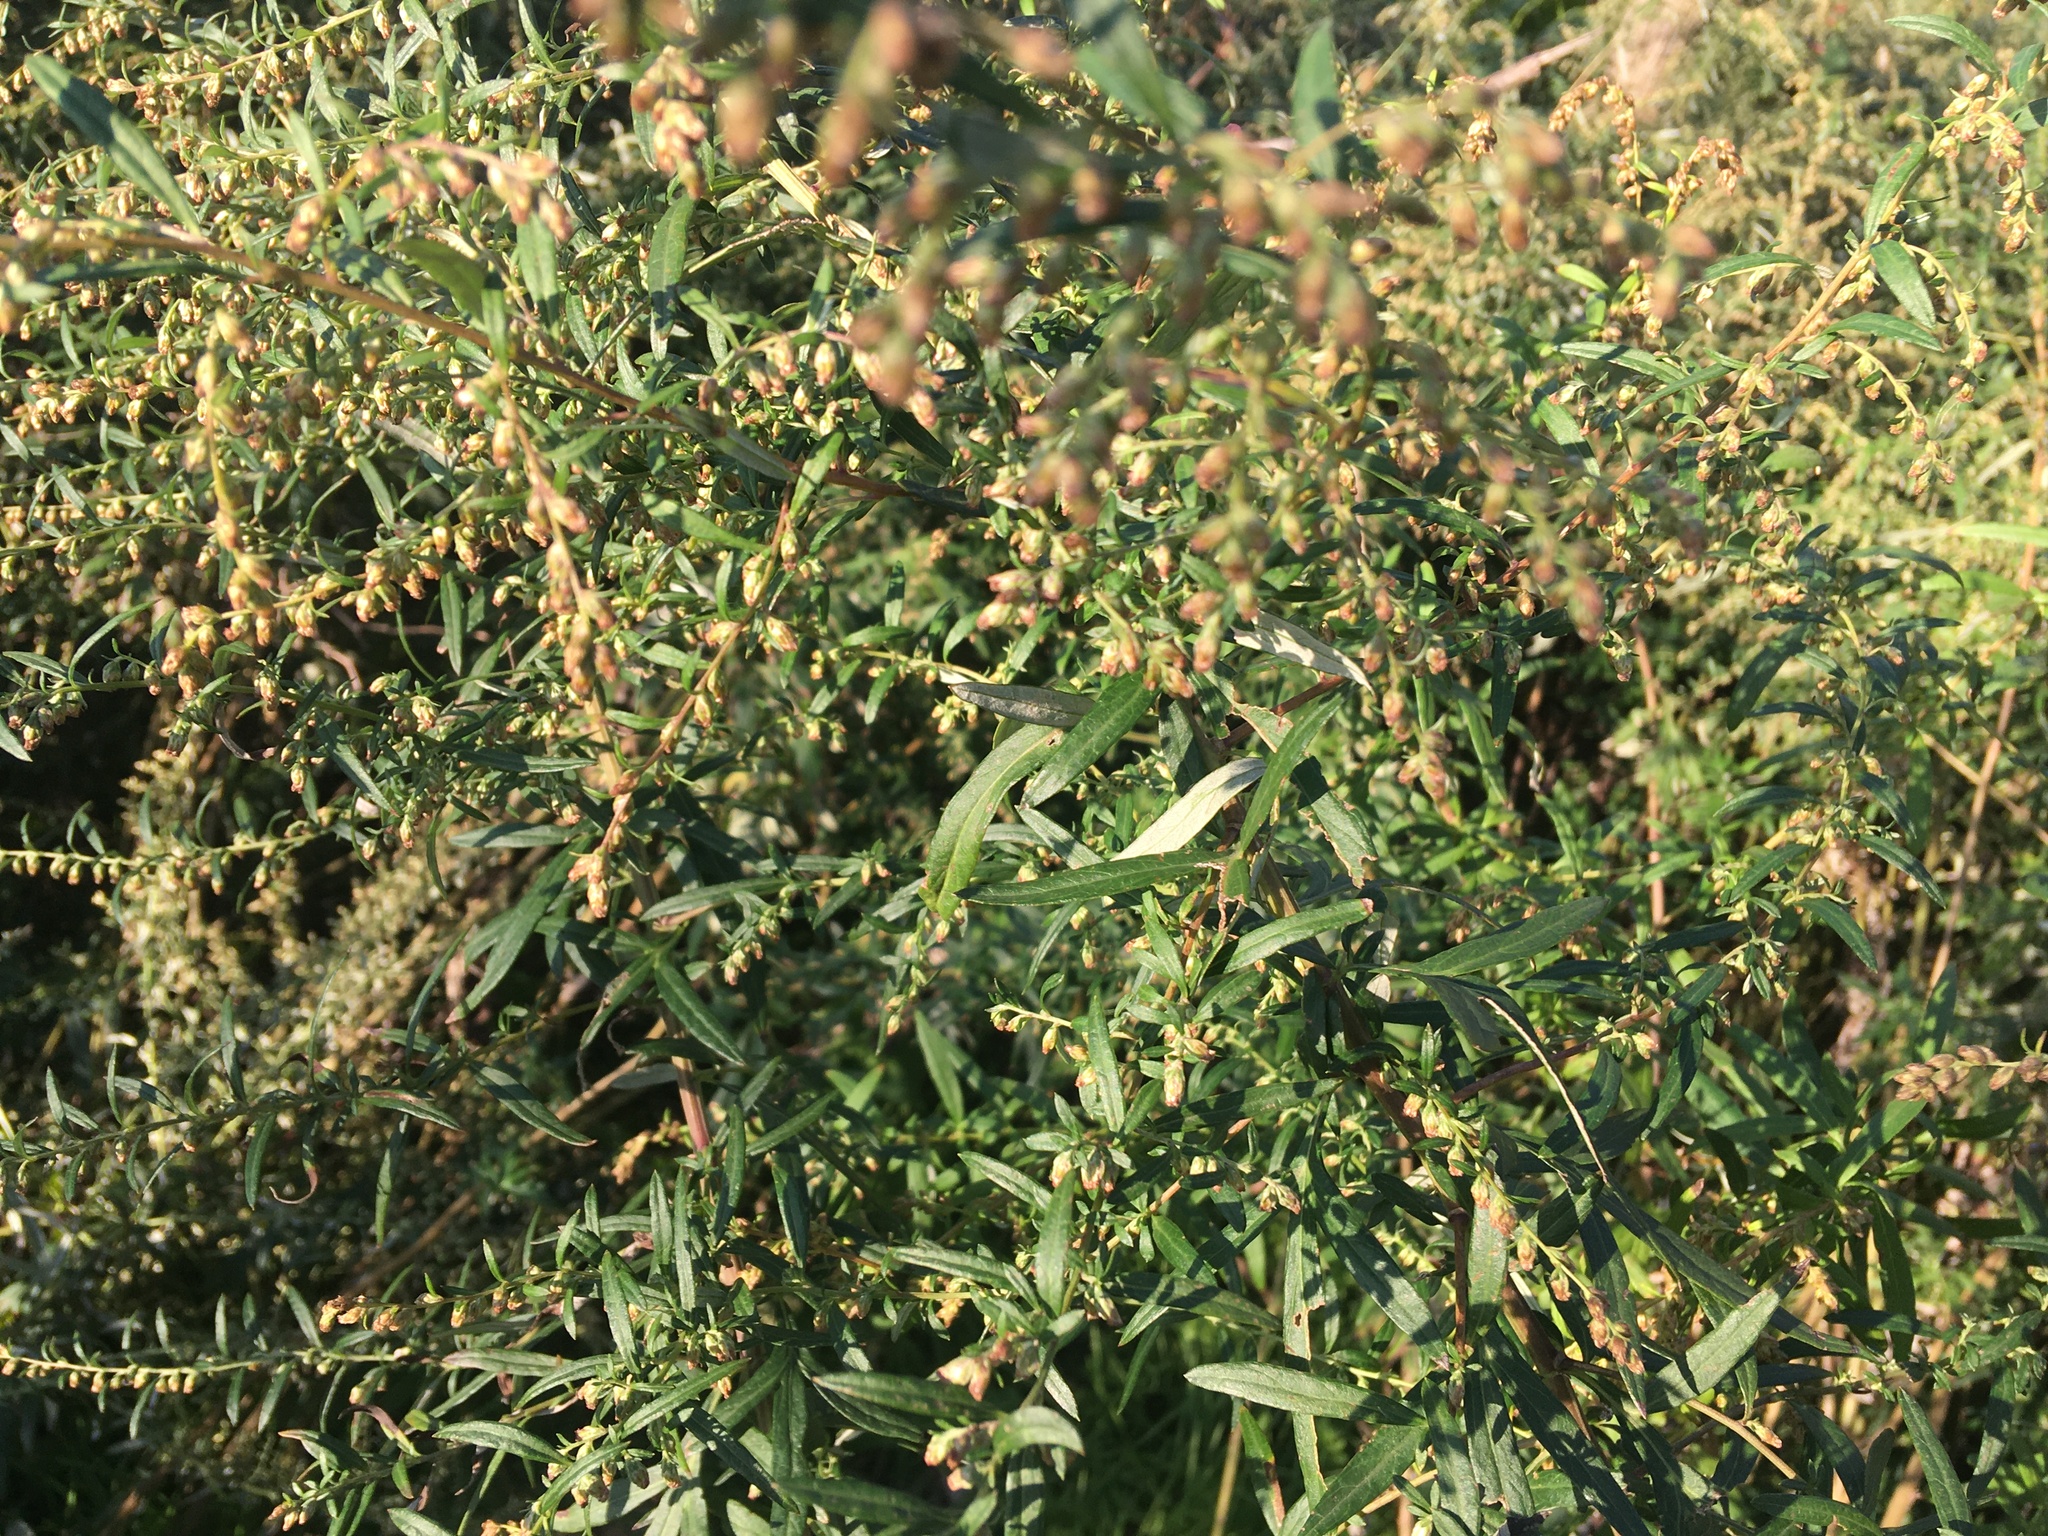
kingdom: Plantae
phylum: Tracheophyta
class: Magnoliopsida
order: Asterales
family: Asteraceae
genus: Artemisia
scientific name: Artemisia vulgaris
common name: Mugwort
